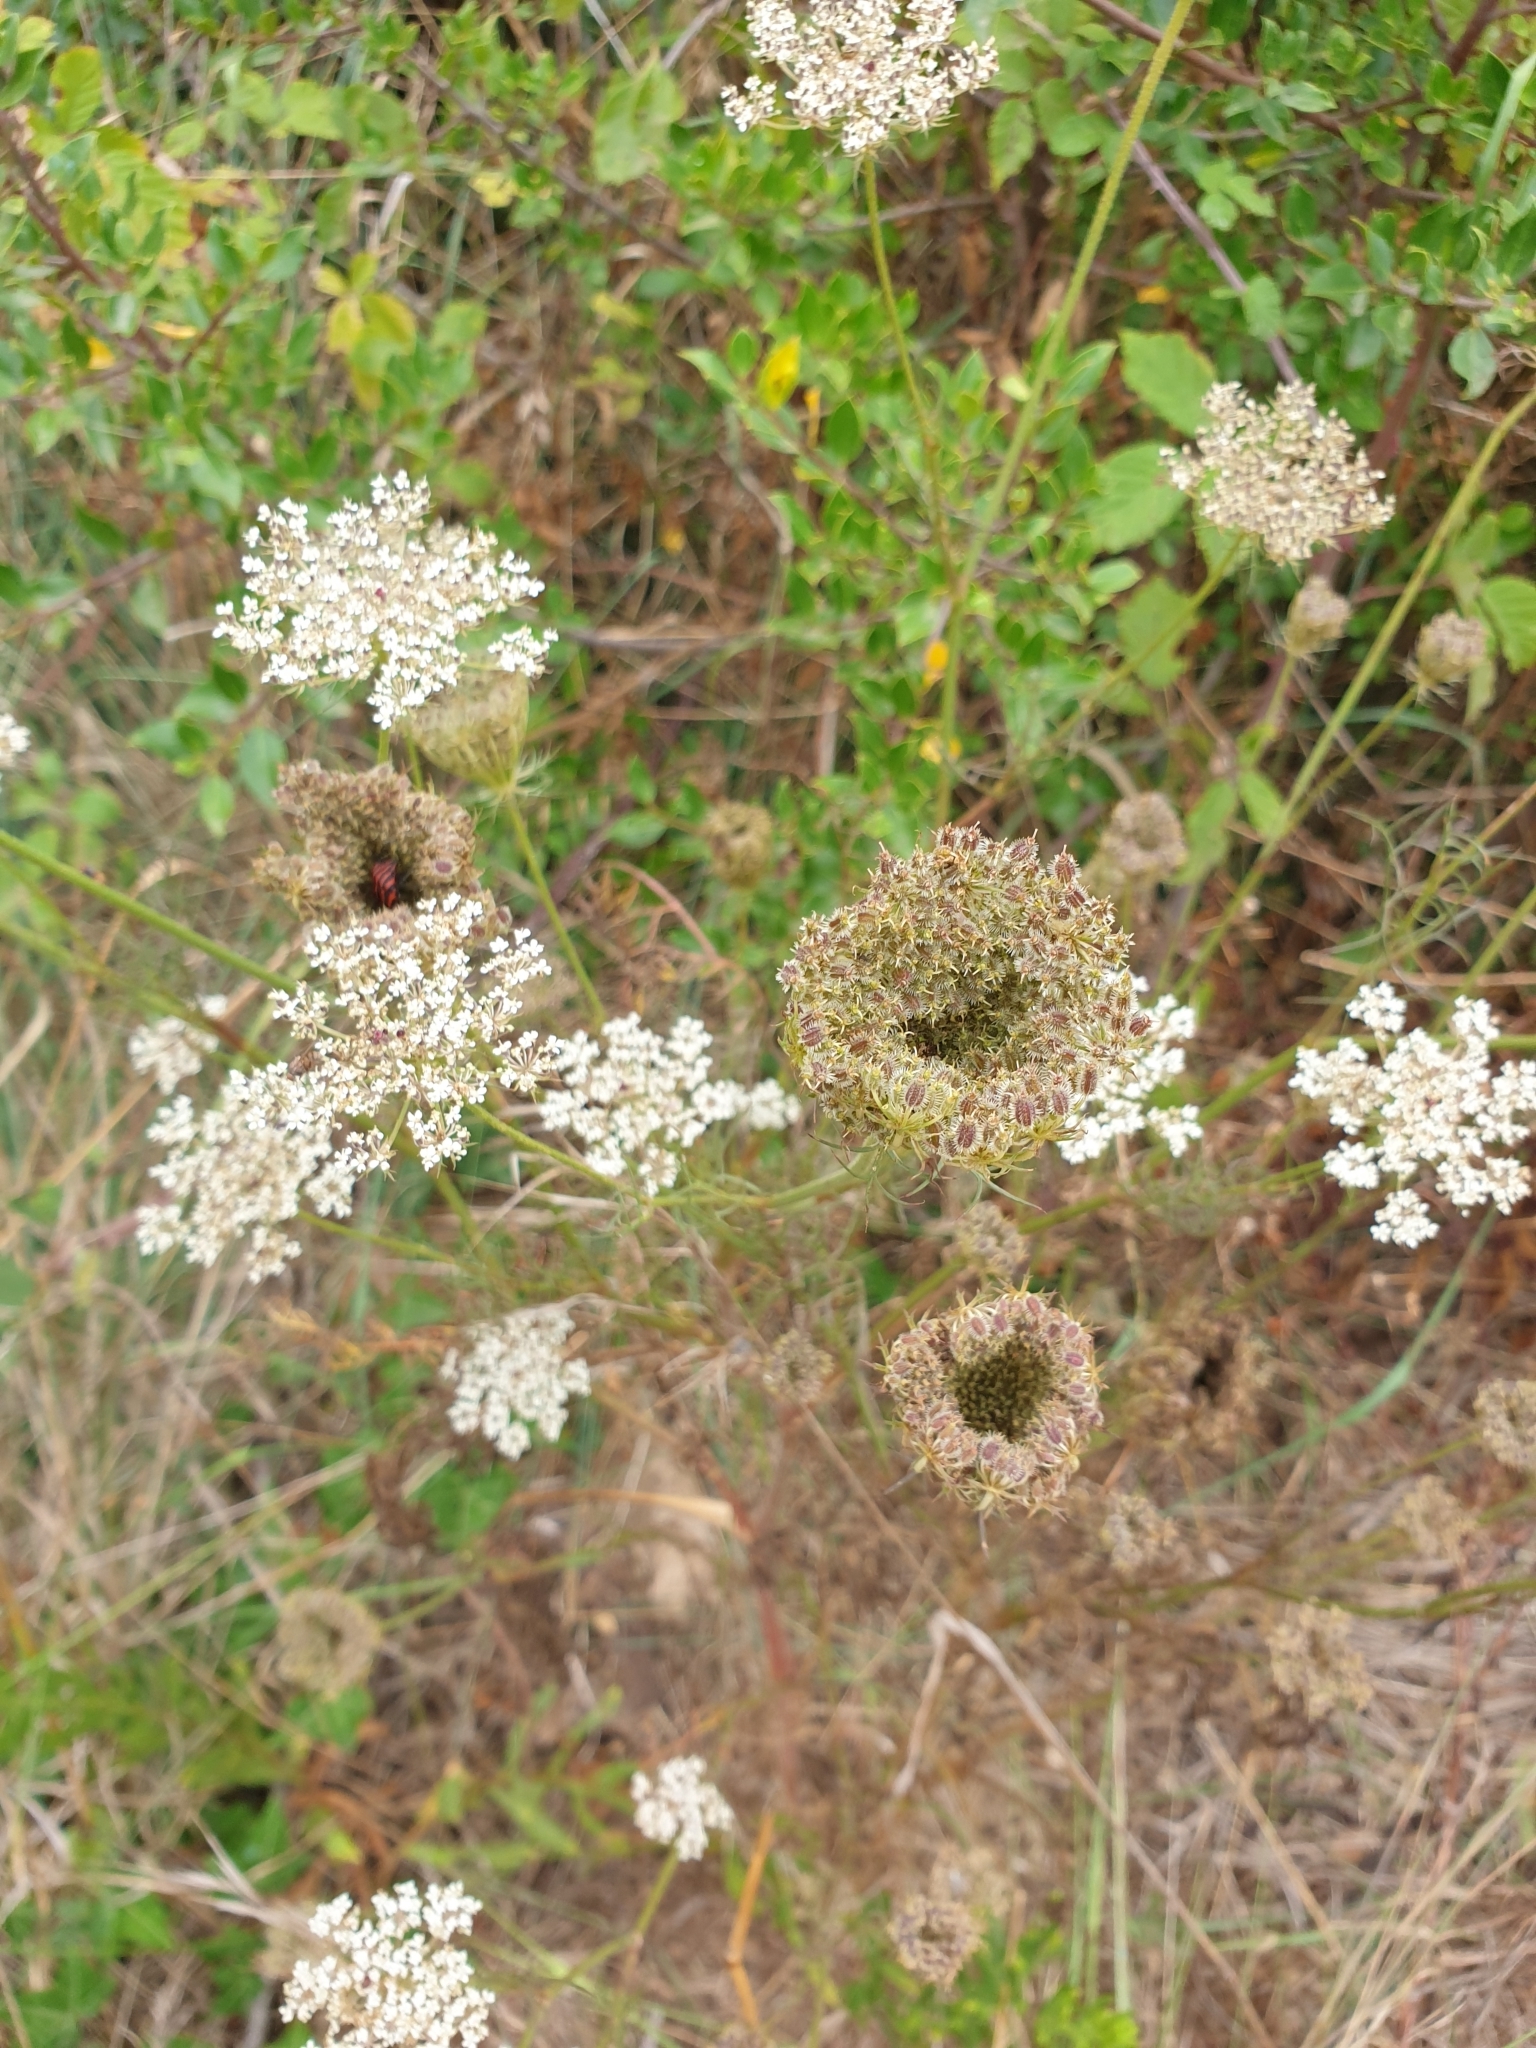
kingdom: Plantae
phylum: Tracheophyta
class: Magnoliopsida
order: Apiales
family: Apiaceae
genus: Daucus
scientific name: Daucus carota
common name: Wild carrot
